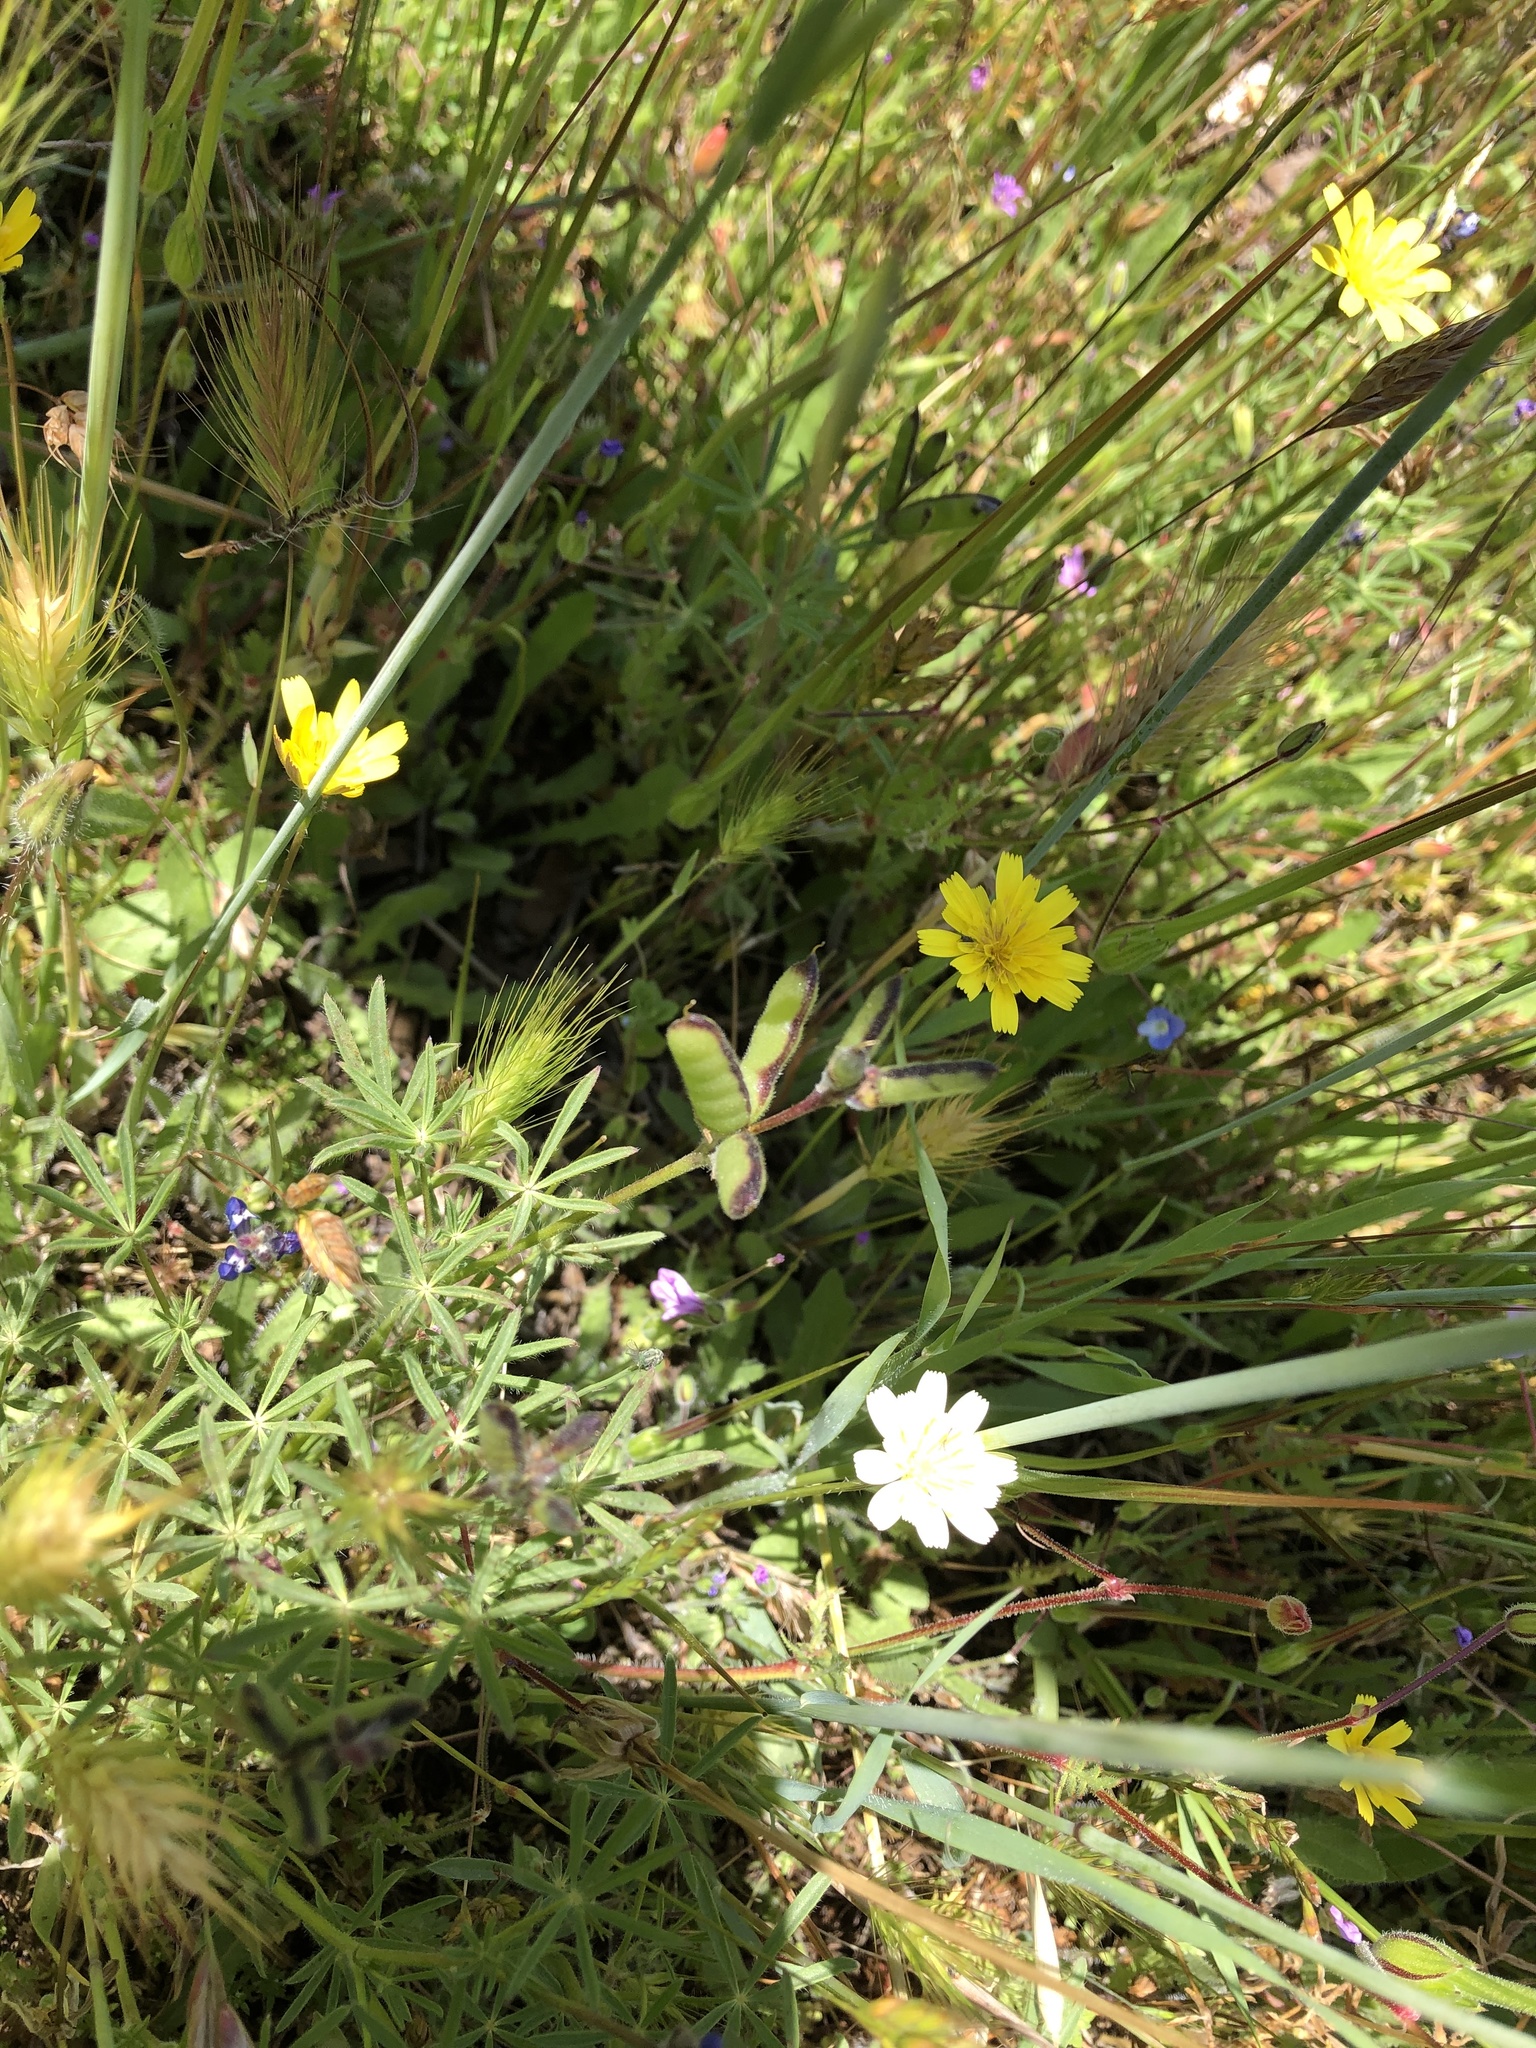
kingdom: Plantae
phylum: Tracheophyta
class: Magnoliopsida
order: Asterales
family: Asteraceae
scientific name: Asteraceae
